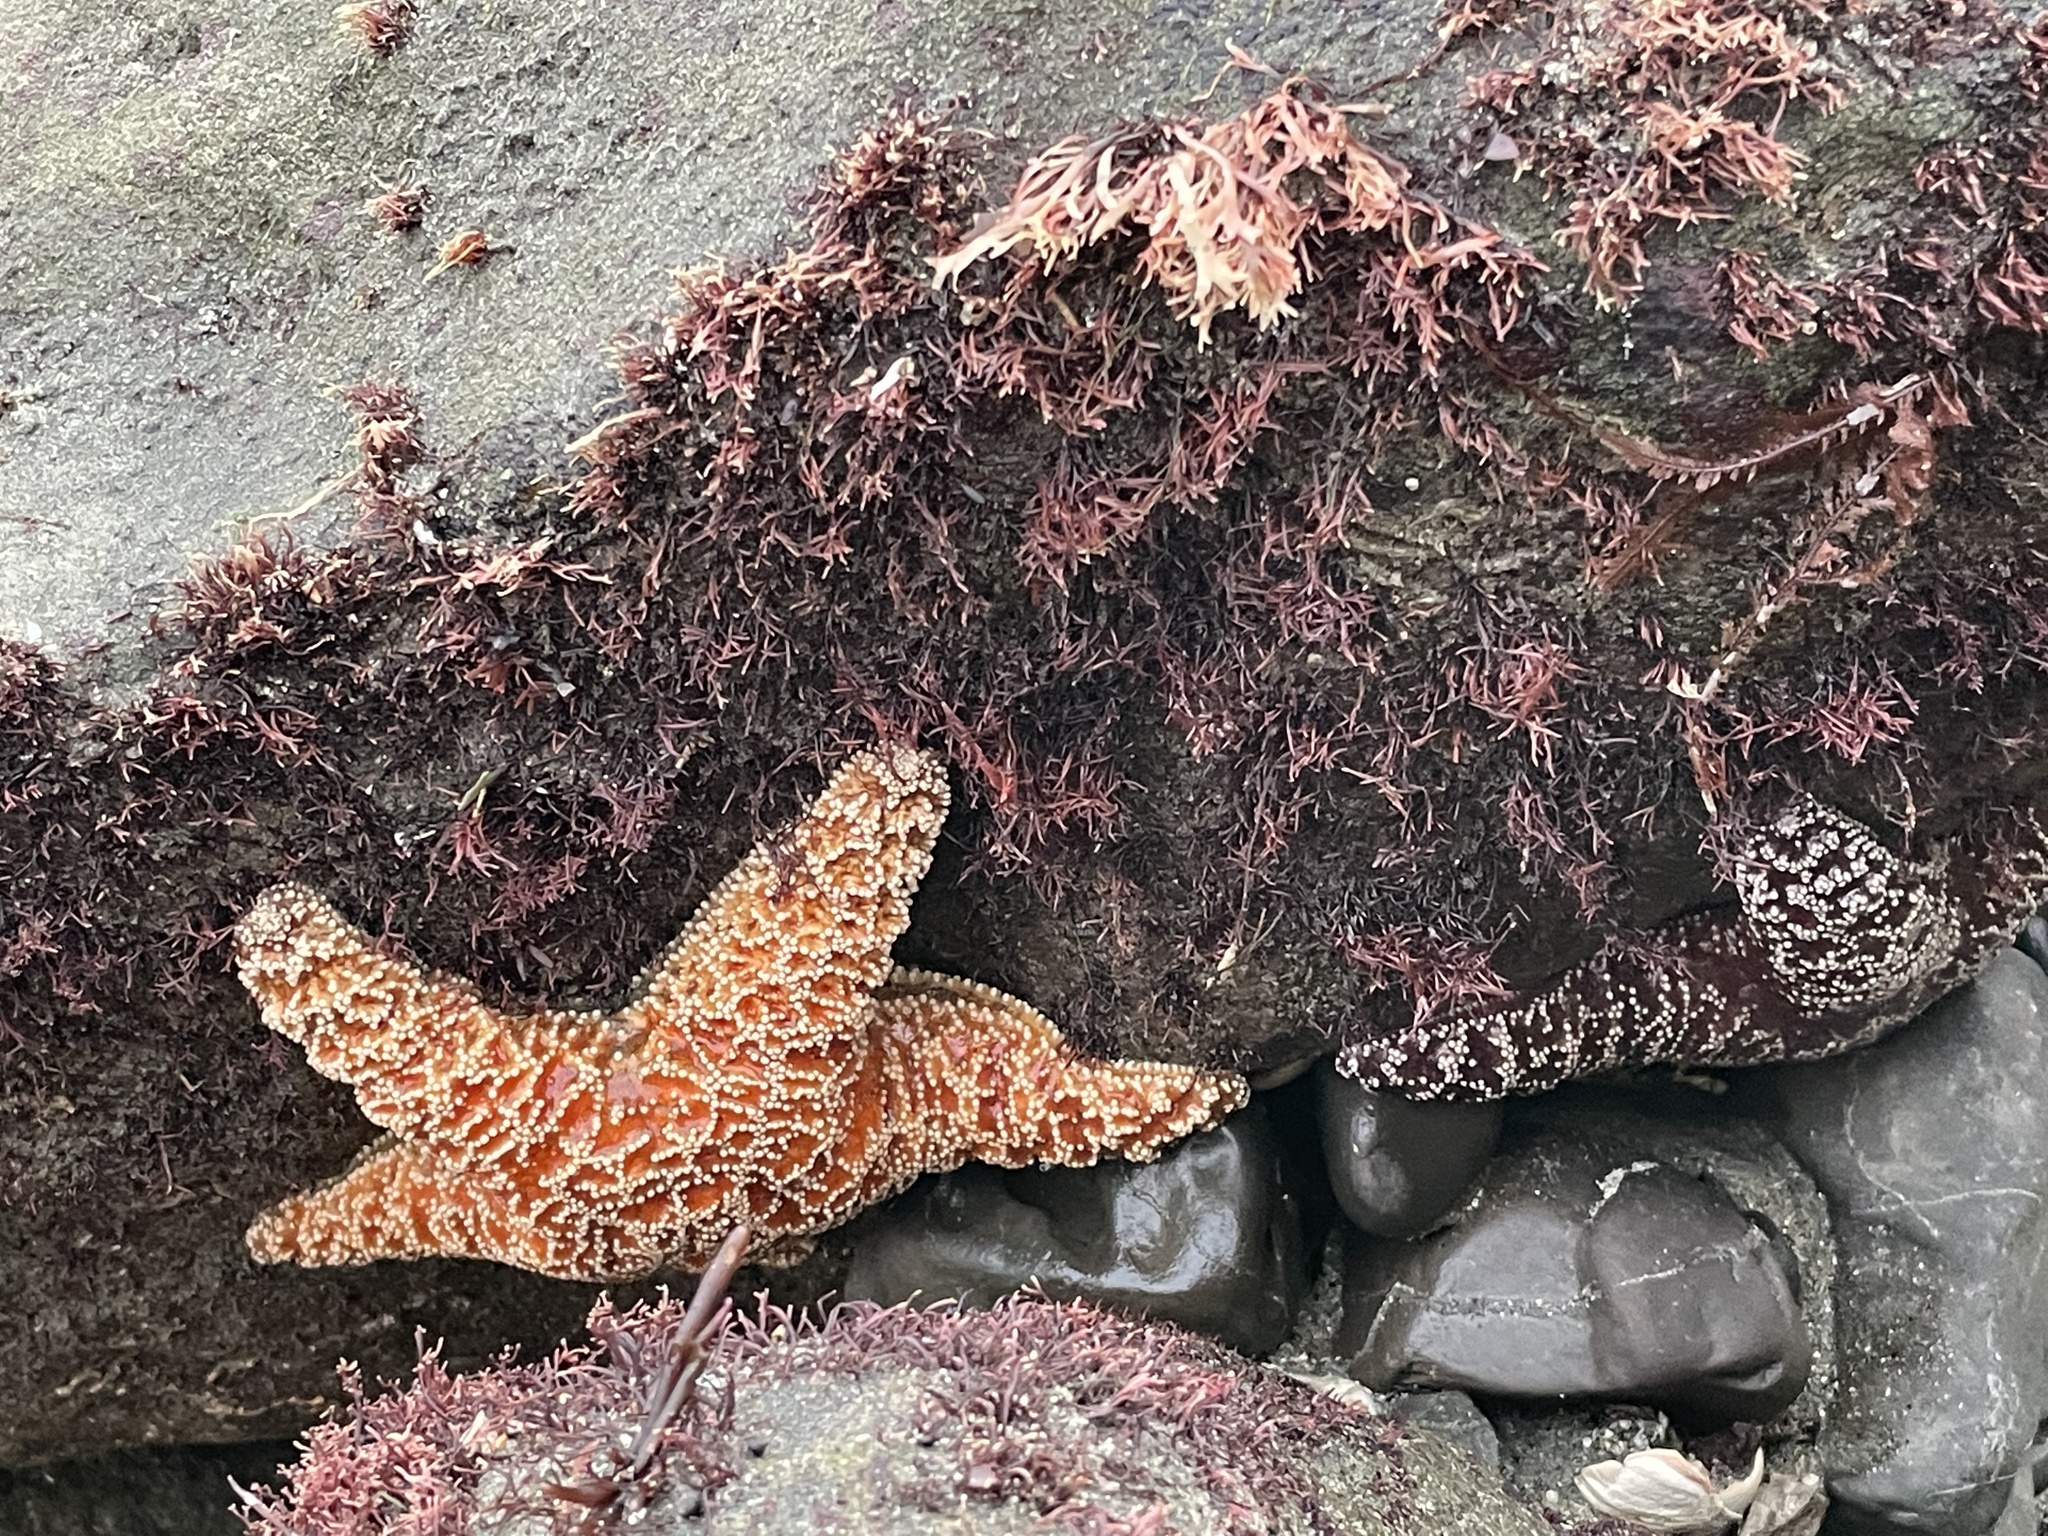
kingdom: Animalia
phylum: Echinodermata
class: Asteroidea
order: Forcipulatida
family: Asteriidae
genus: Pisaster
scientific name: Pisaster ochraceus
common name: Ochre stars
